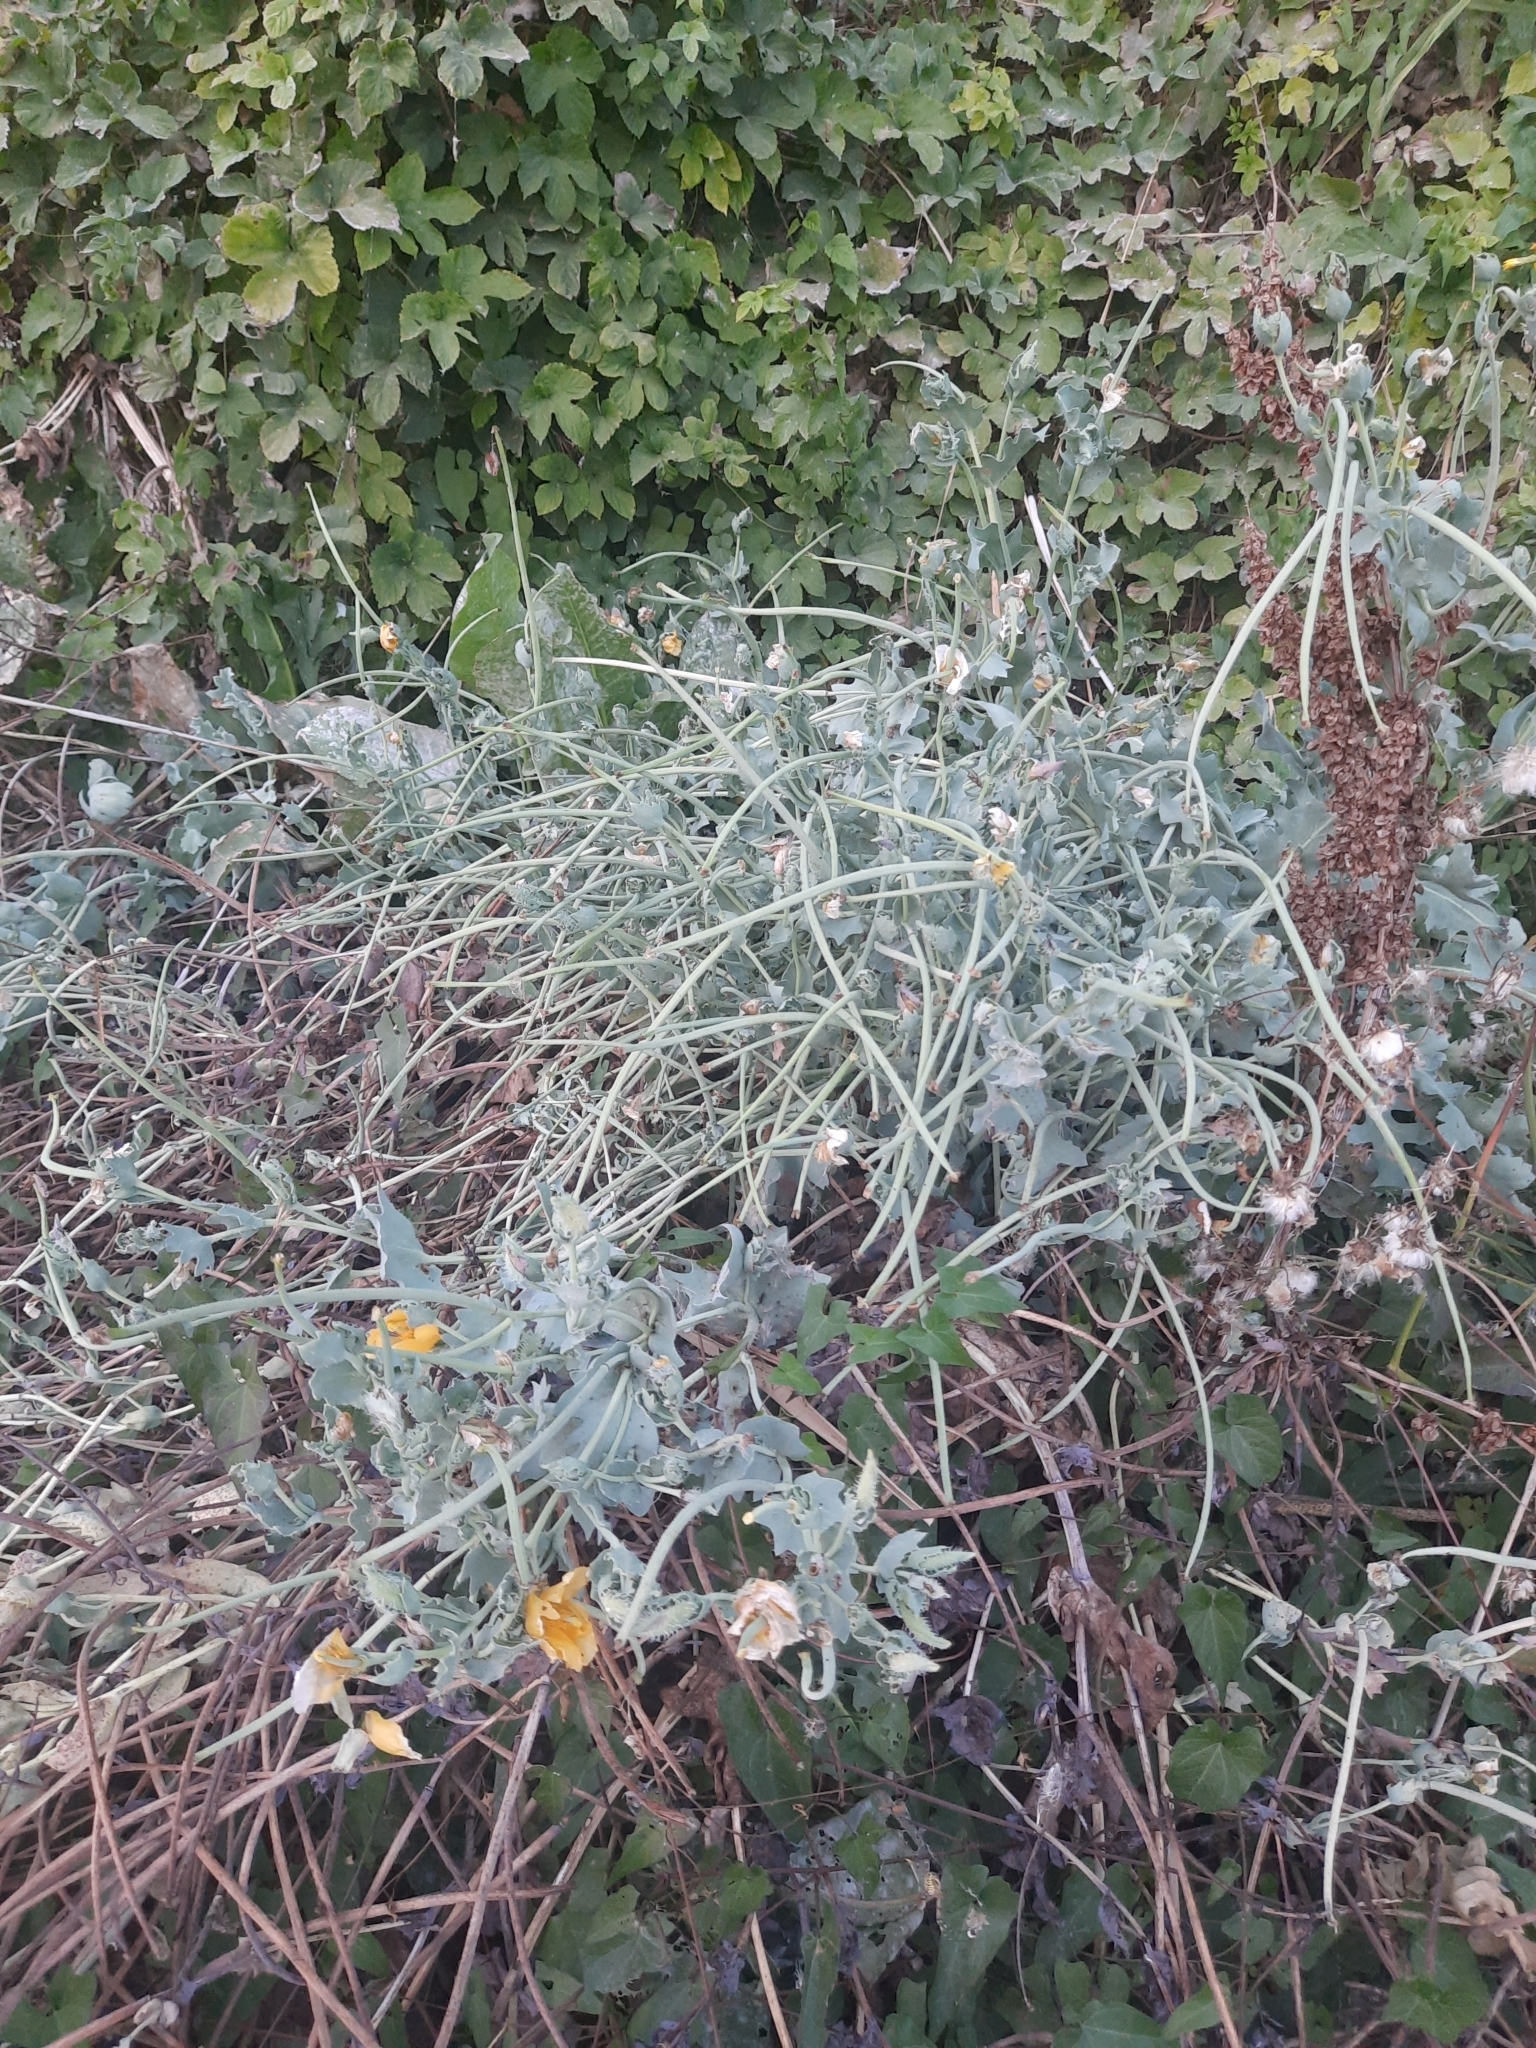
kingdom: Plantae
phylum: Tracheophyta
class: Magnoliopsida
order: Ranunculales
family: Papaveraceae
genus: Glaucium
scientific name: Glaucium flavum
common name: Yellow horned-poppy
